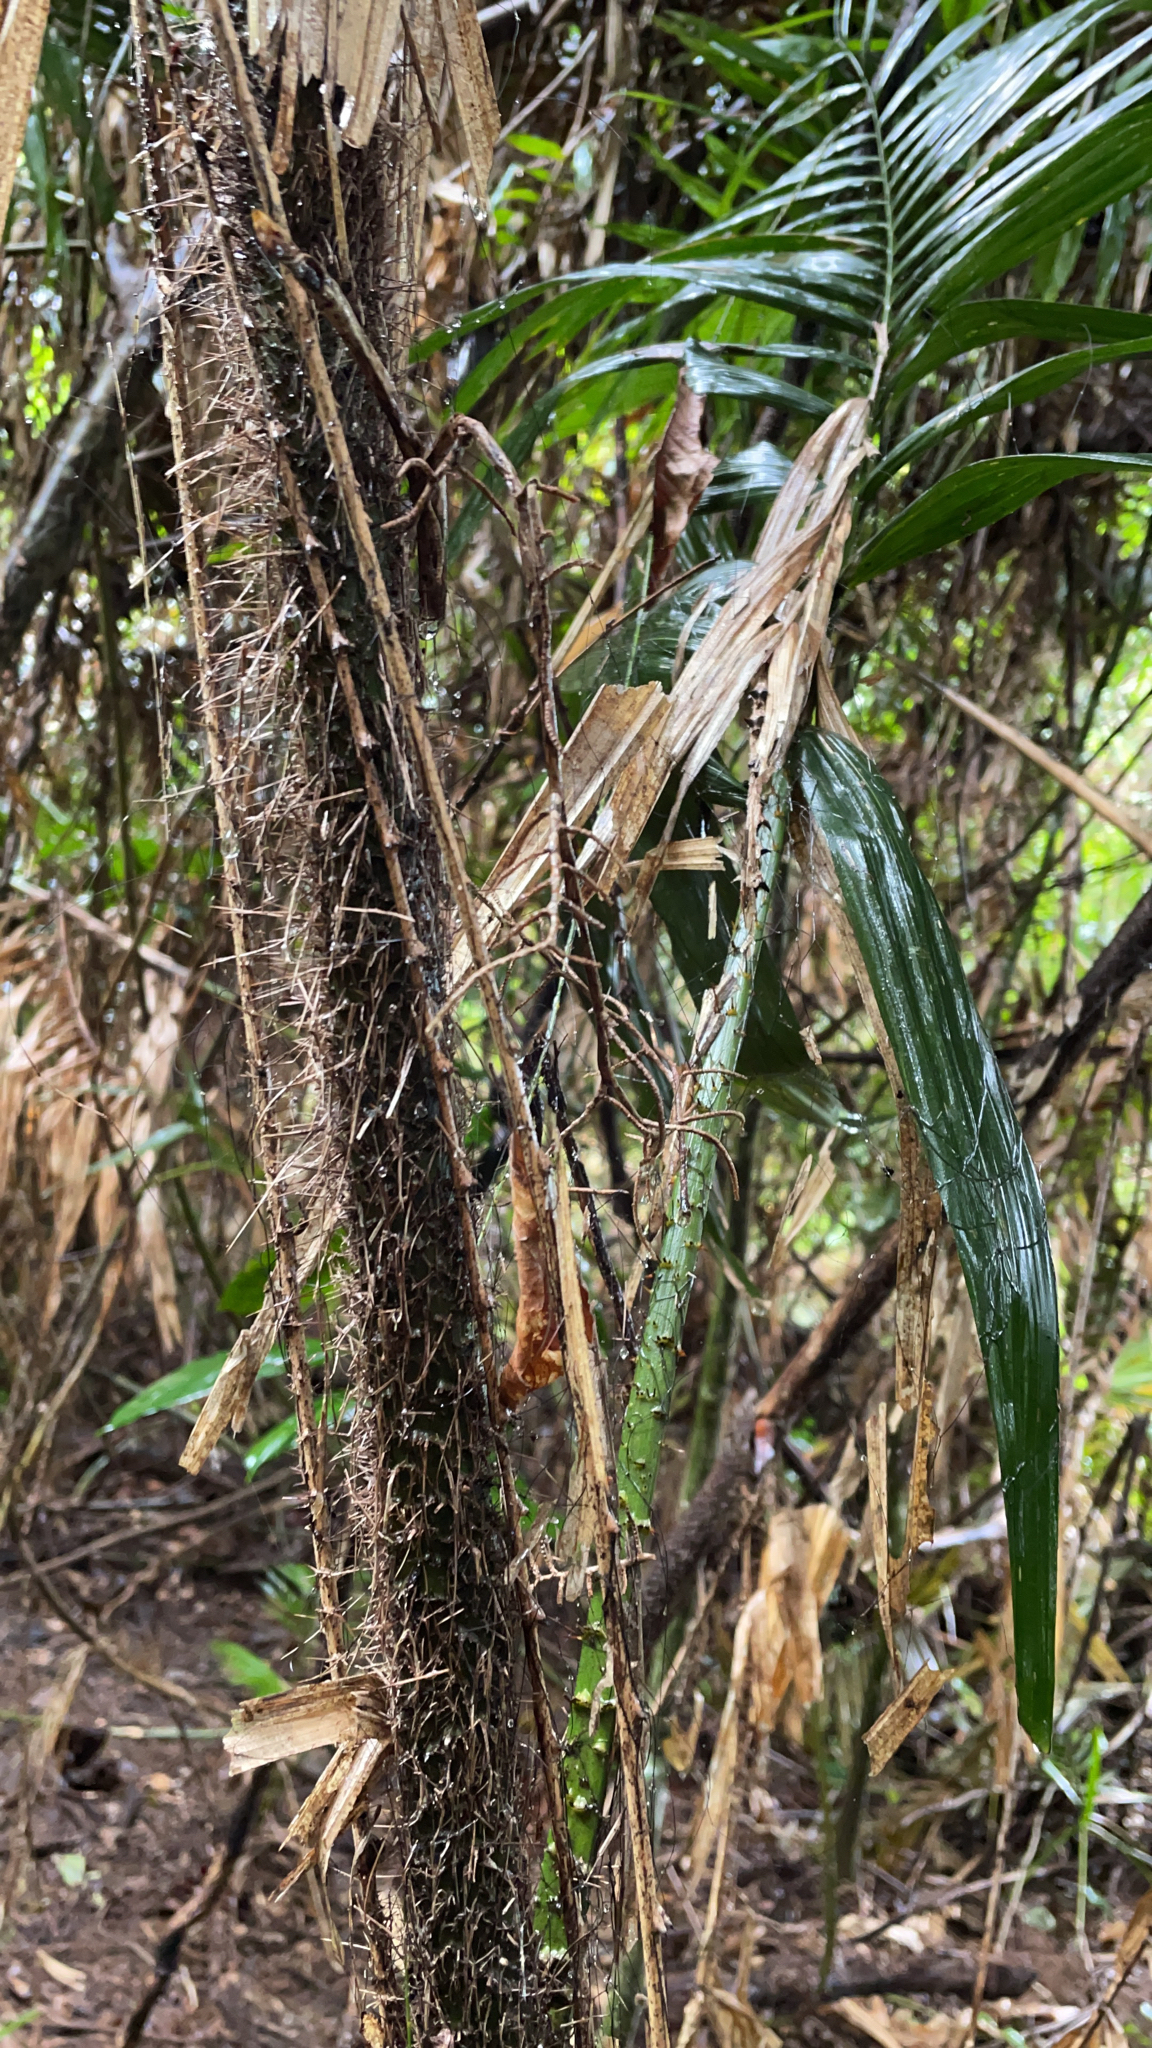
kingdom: Plantae
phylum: Tracheophyta
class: Liliopsida
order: Arecales
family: Arecaceae
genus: Calamus
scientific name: Calamus australis
